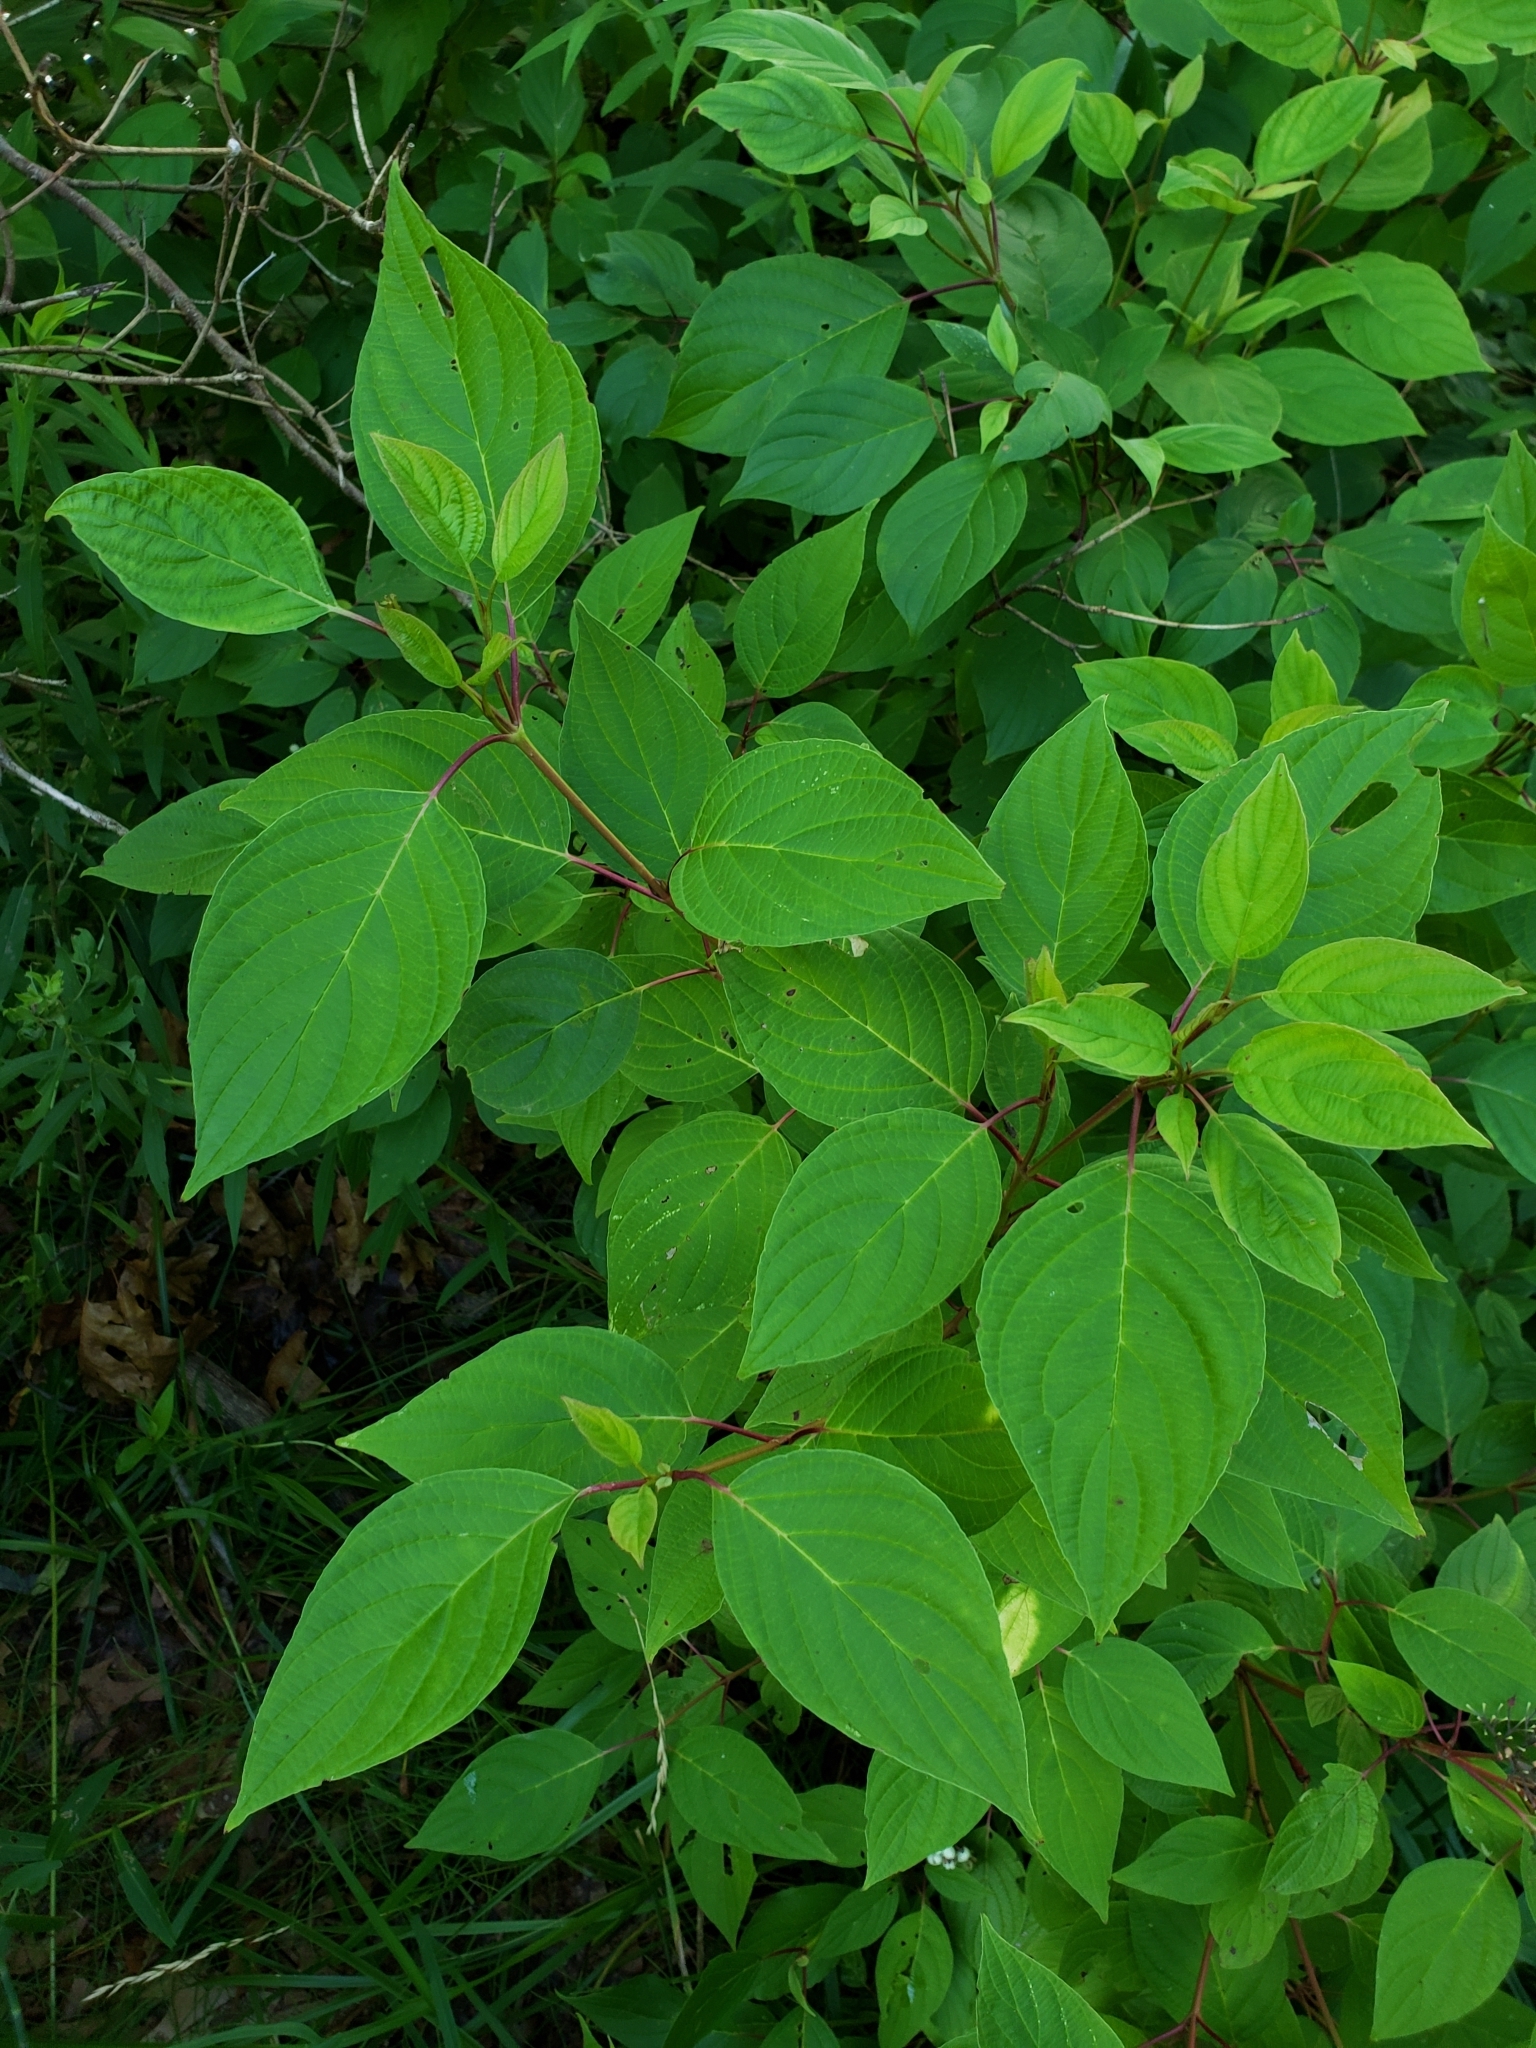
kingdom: Plantae
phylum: Tracheophyta
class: Magnoliopsida
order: Cornales
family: Cornaceae
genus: Cornus
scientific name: Cornus sericea
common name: Red-osier dogwood
